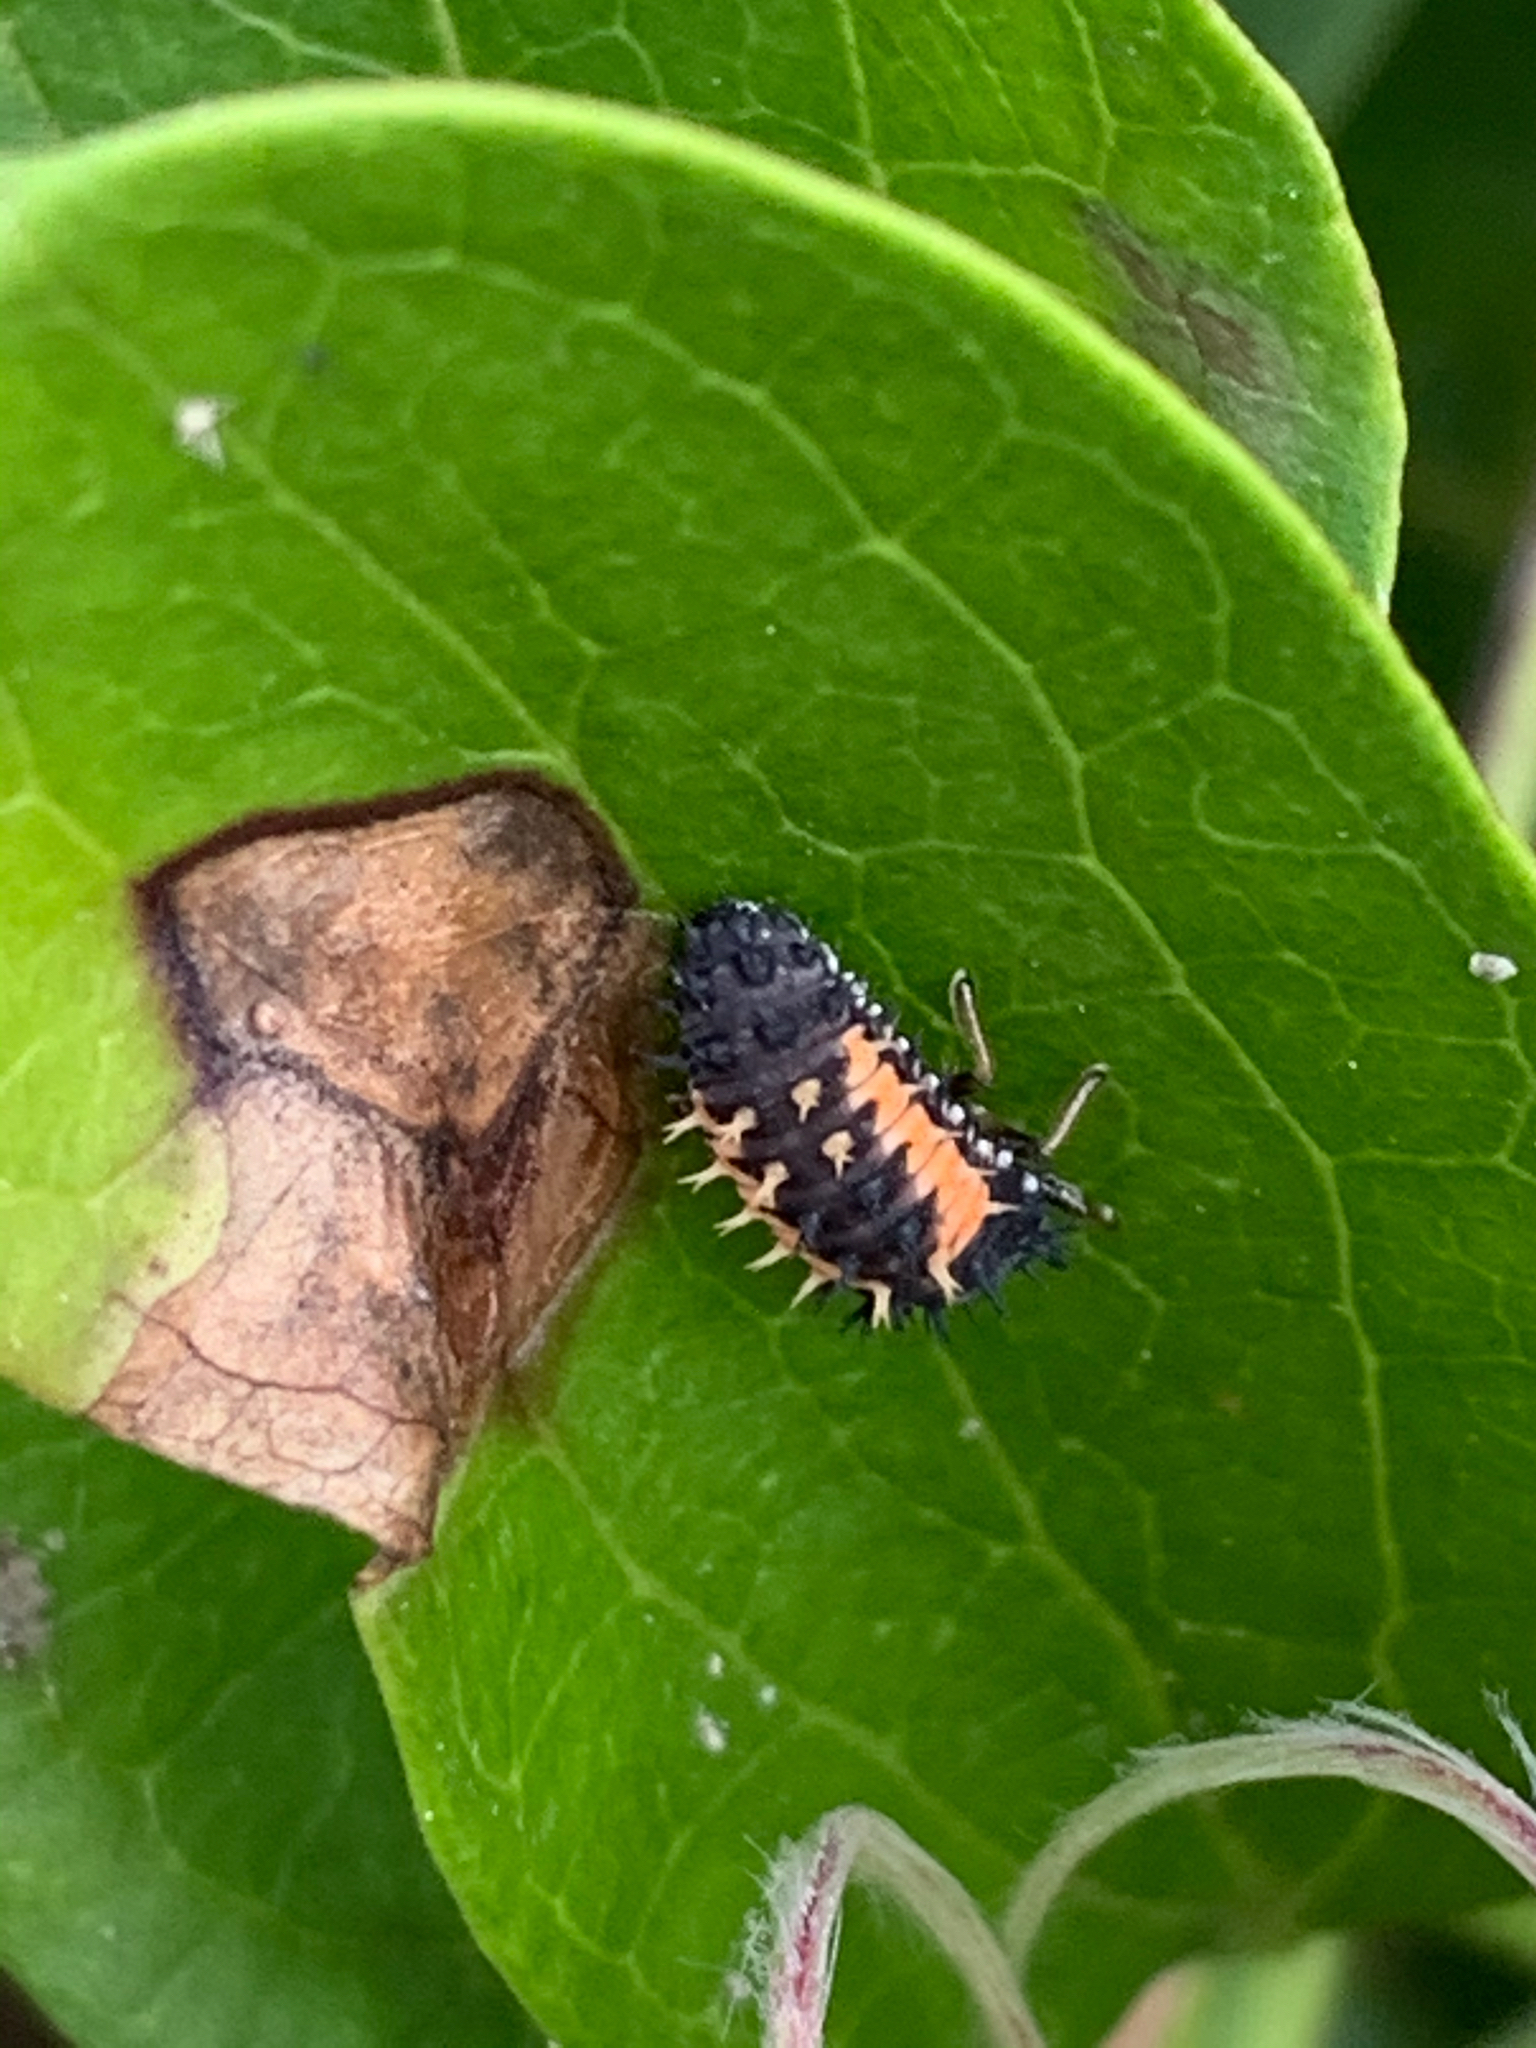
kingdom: Animalia
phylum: Arthropoda
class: Insecta
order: Coleoptera
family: Coccinellidae
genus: Harmonia
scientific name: Harmonia axyridis
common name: Harlequin ladybird
